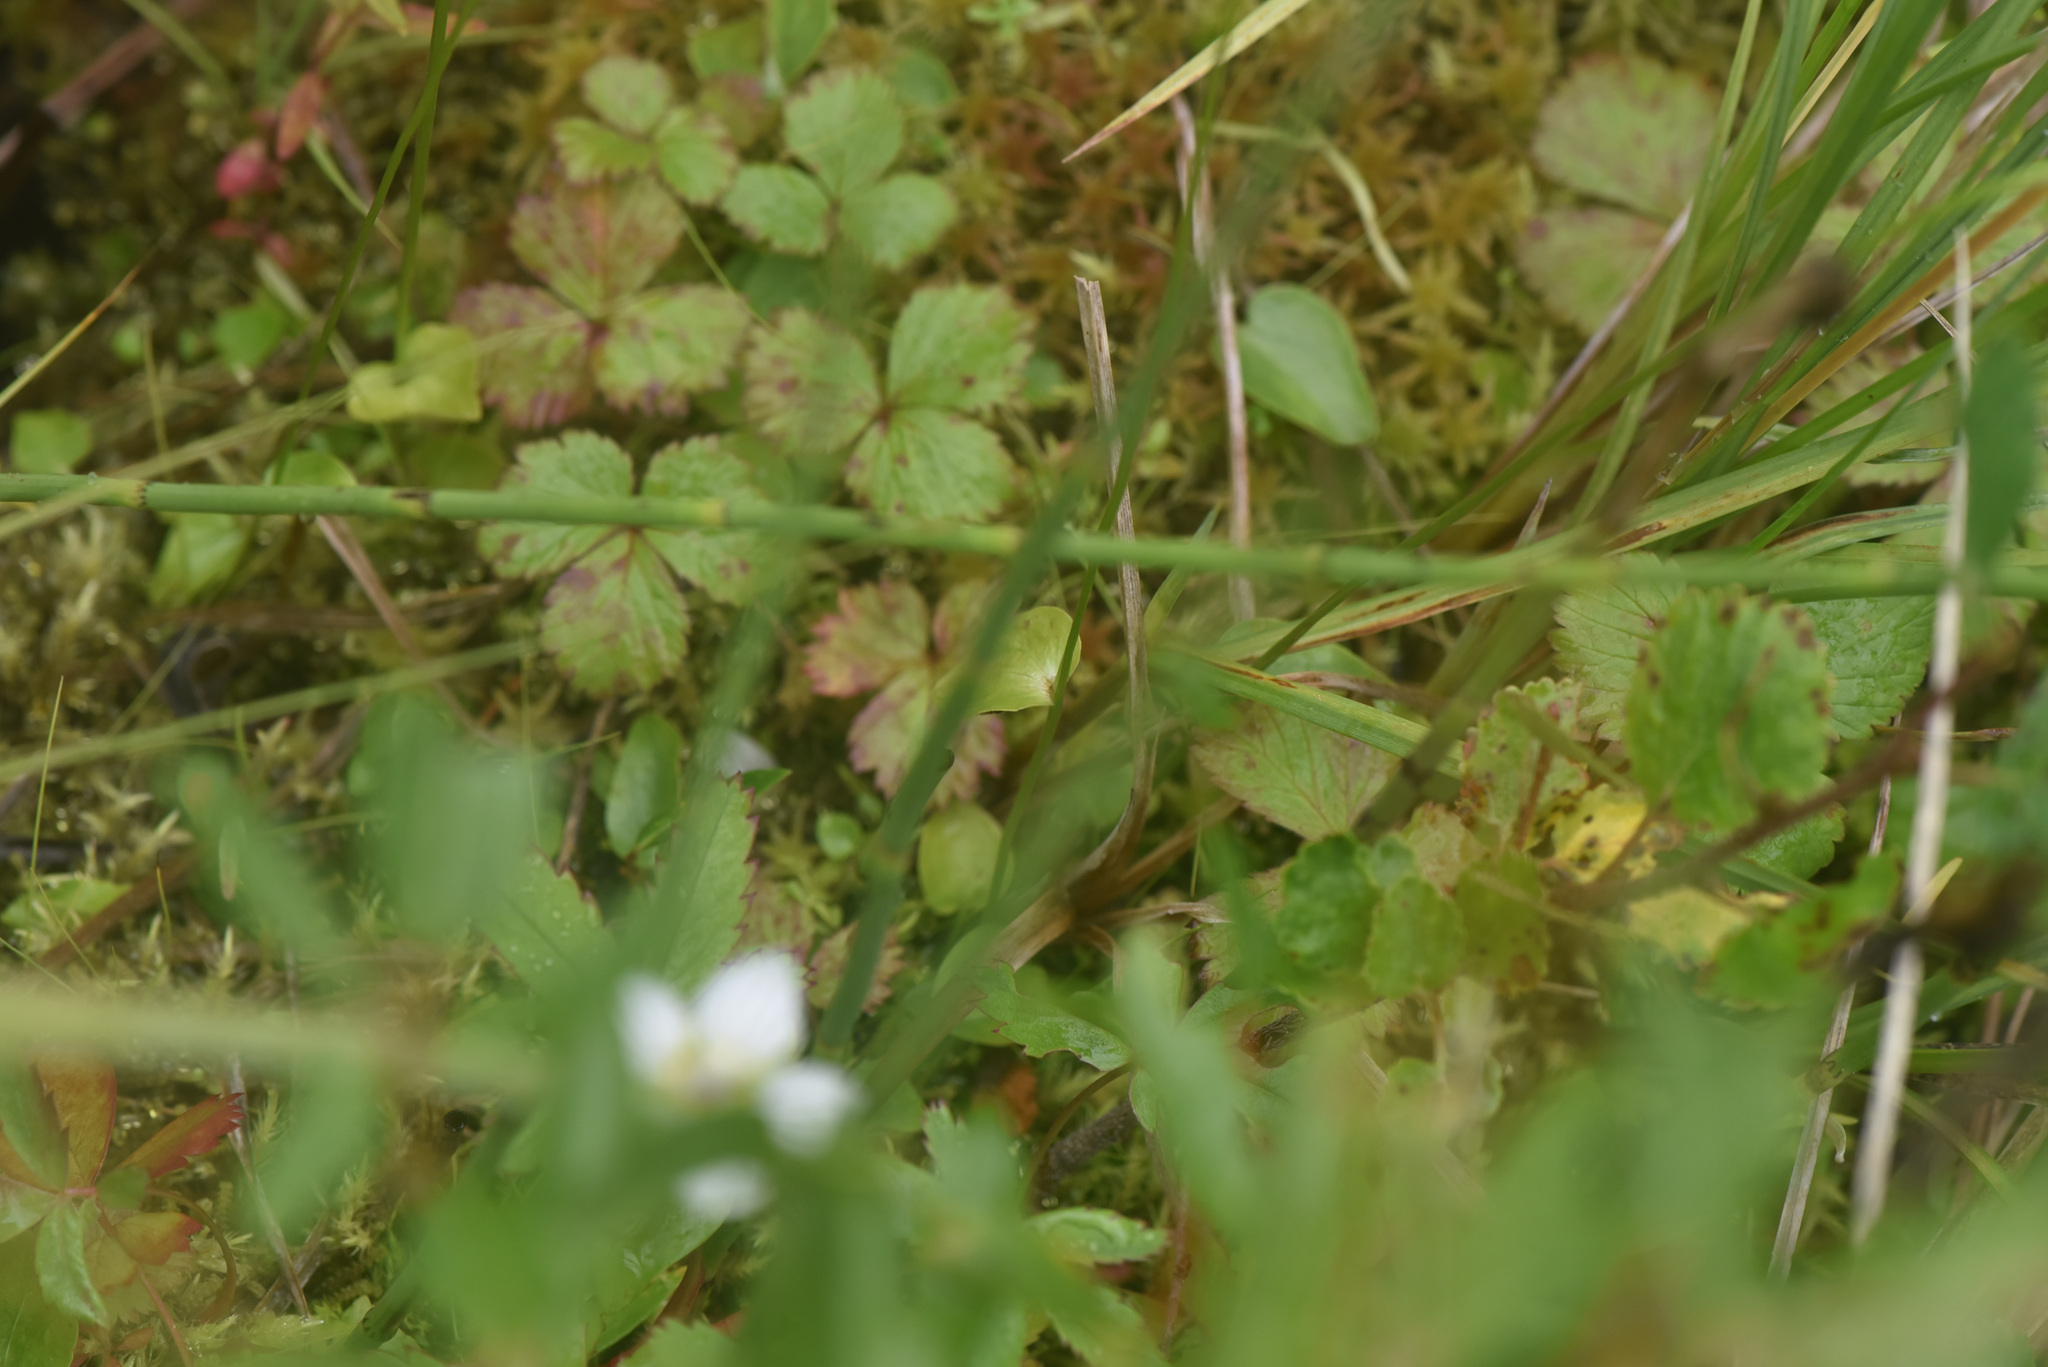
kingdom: Plantae
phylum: Tracheophyta
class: Magnoliopsida
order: Celastrales
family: Parnassiaceae
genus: Parnassia
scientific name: Parnassia palustris
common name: Grass-of-parnassus
